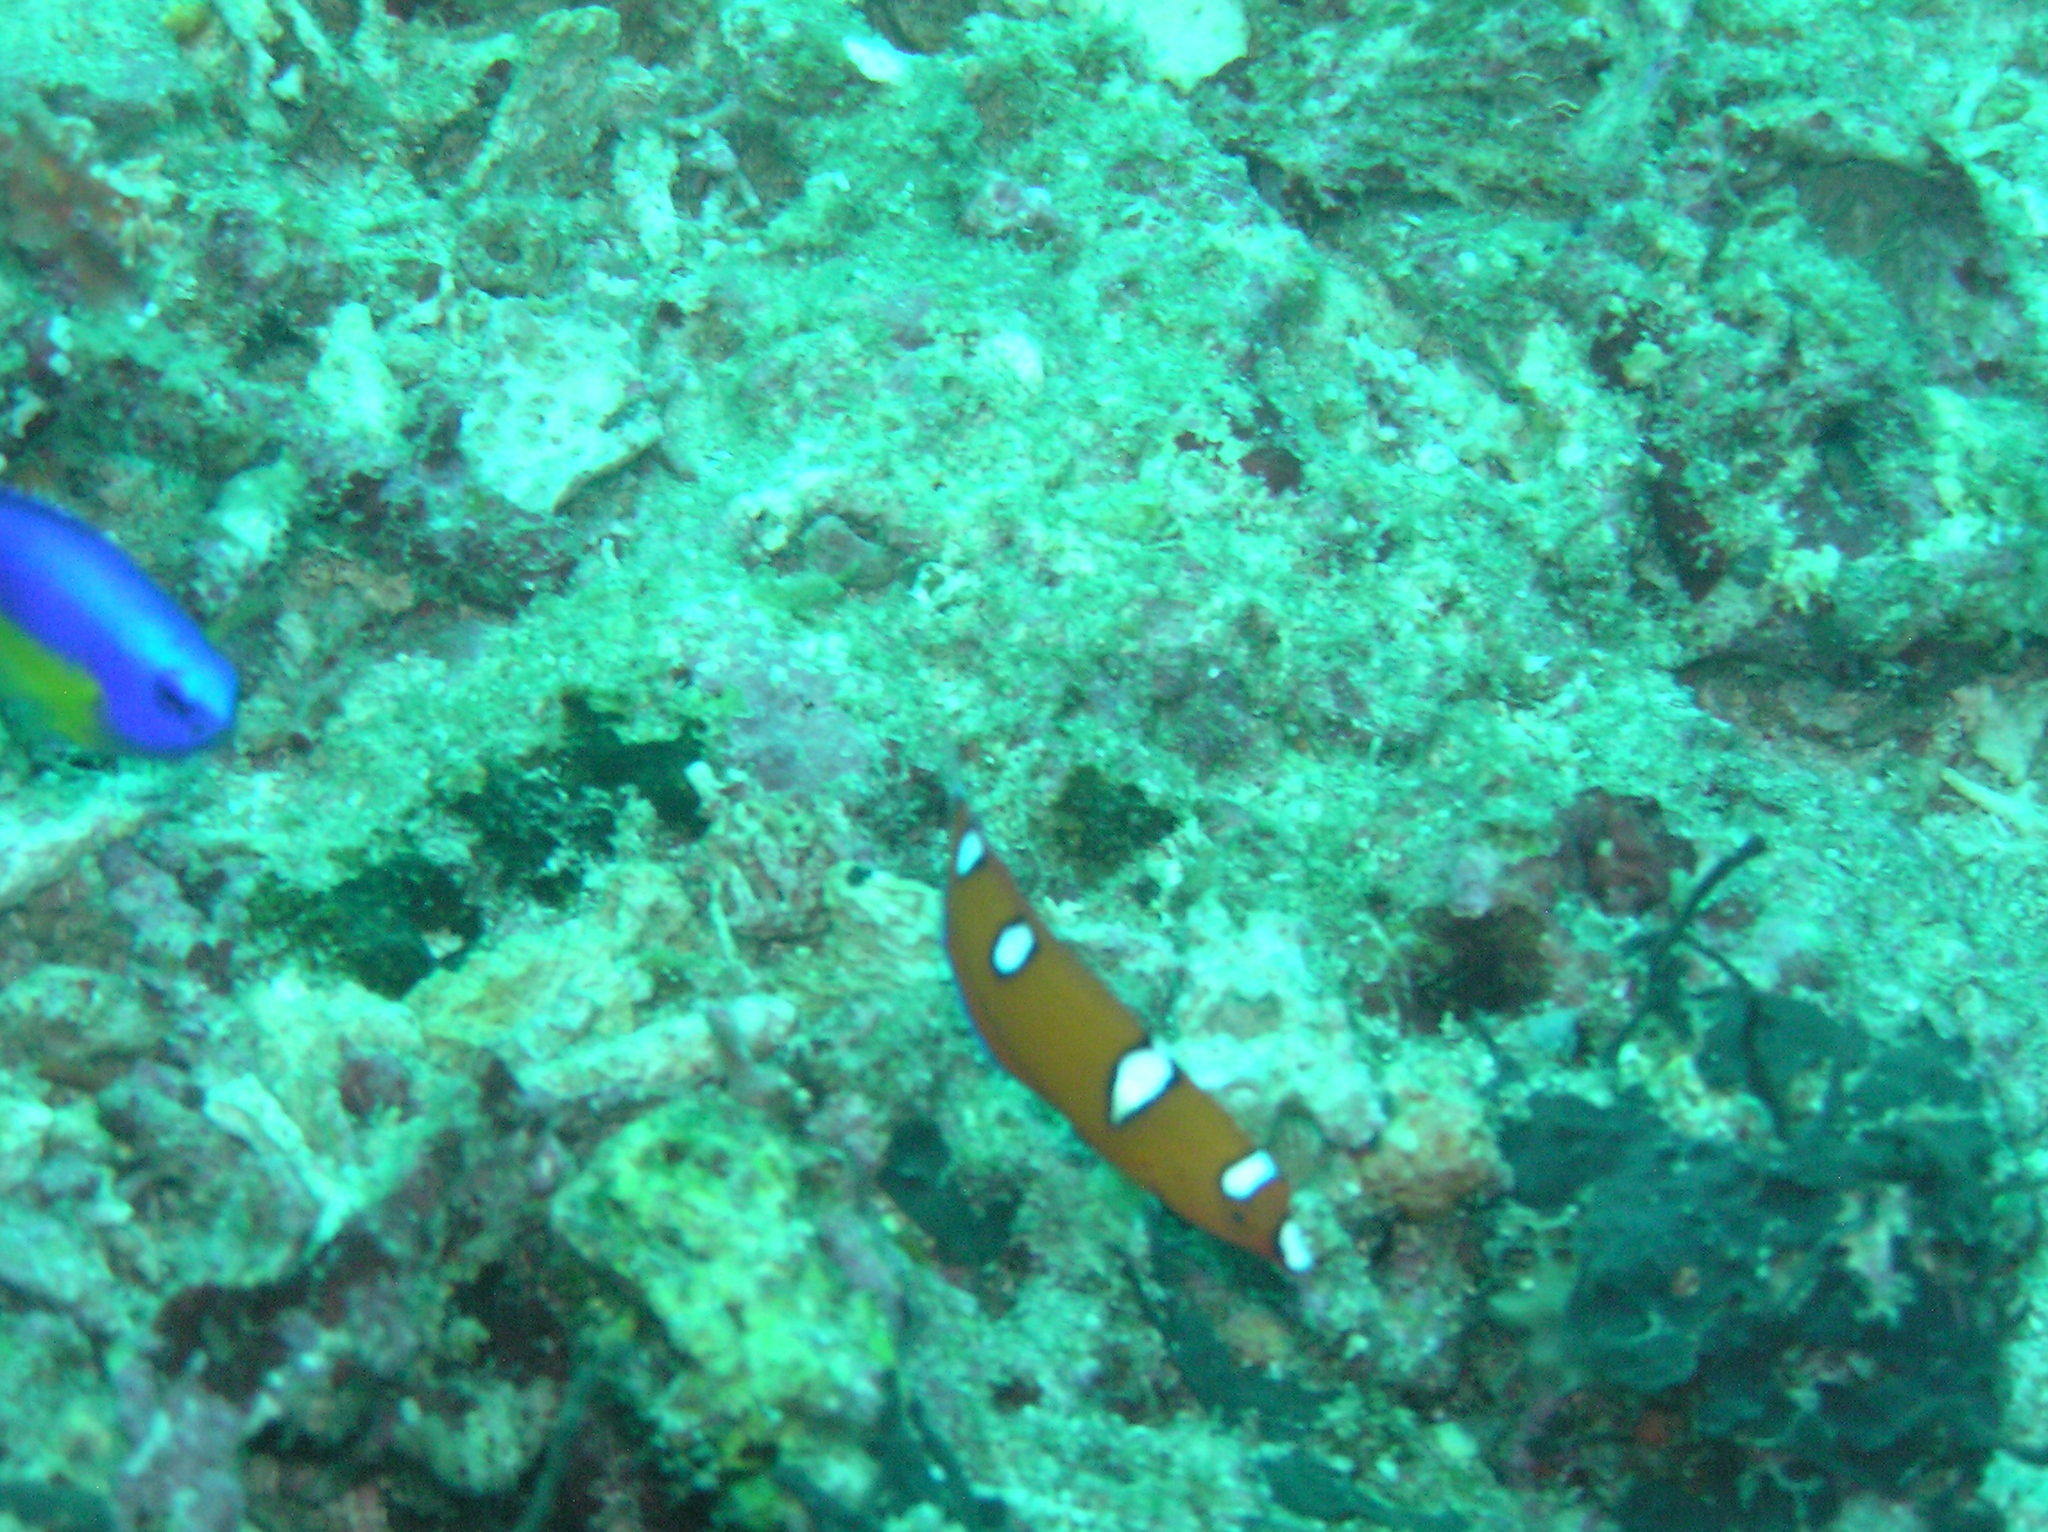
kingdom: Animalia
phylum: Chordata
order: Perciformes
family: Labridae
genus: Coris
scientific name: Coris gaimard
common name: Yellowtail coris
